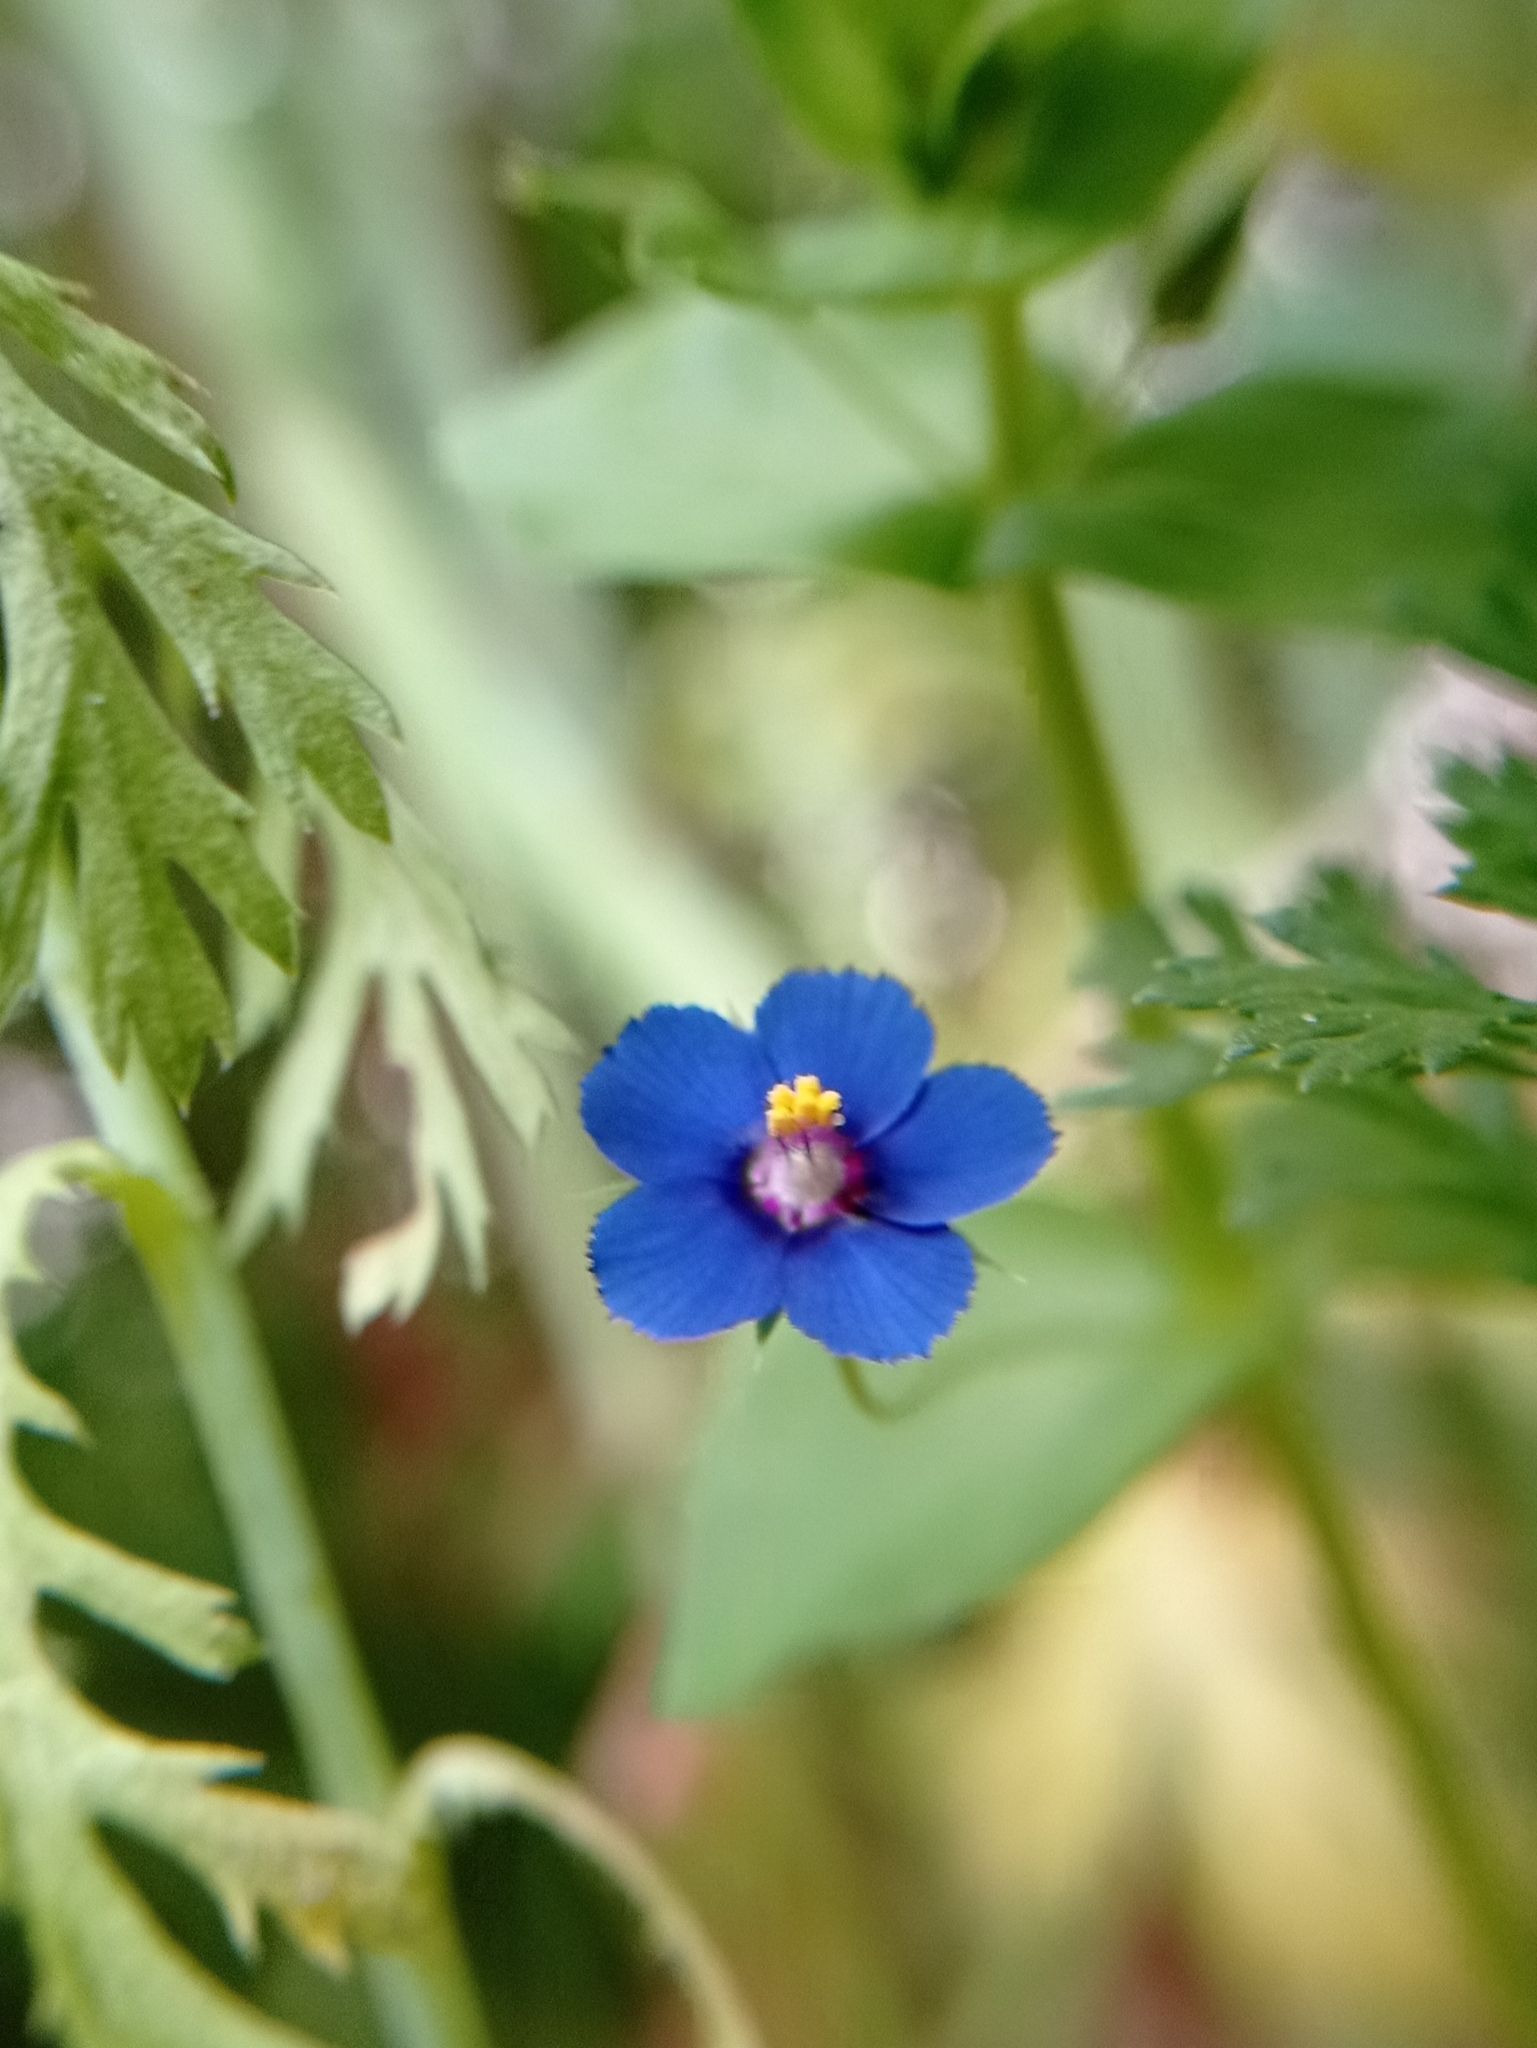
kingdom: Plantae
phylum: Tracheophyta
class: Magnoliopsida
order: Ericales
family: Primulaceae
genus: Lysimachia
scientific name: Lysimachia foemina
